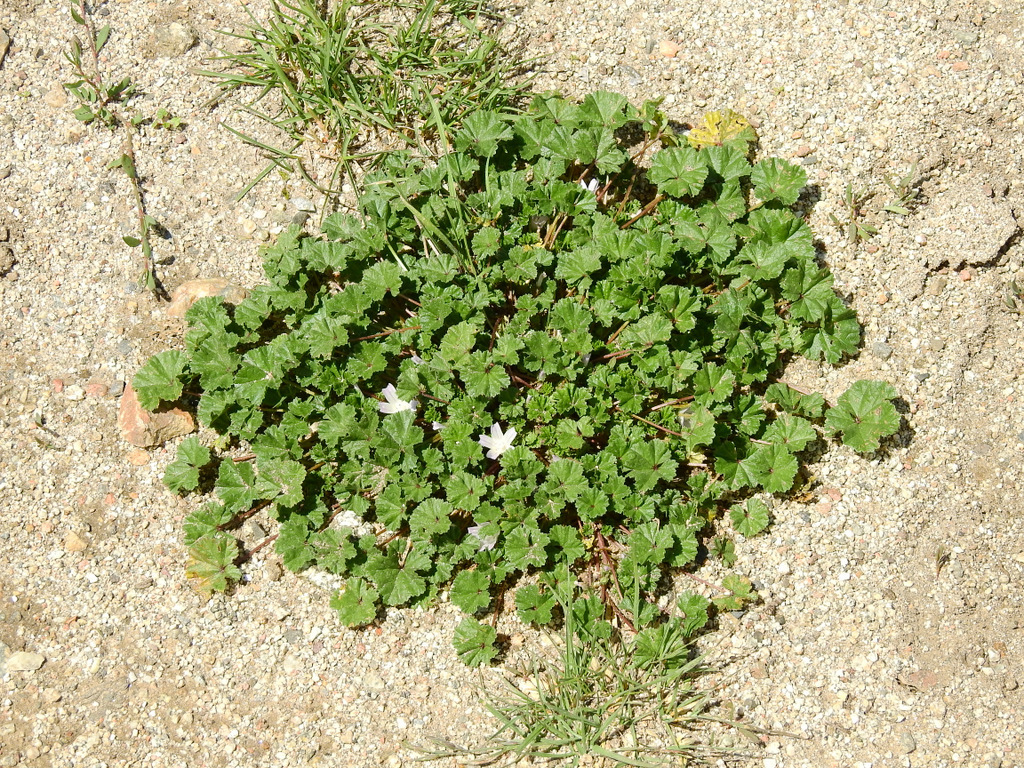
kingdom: Plantae
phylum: Tracheophyta
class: Magnoliopsida
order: Malvales
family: Malvaceae
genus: Malva
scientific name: Malva parviflora
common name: Least mallow
